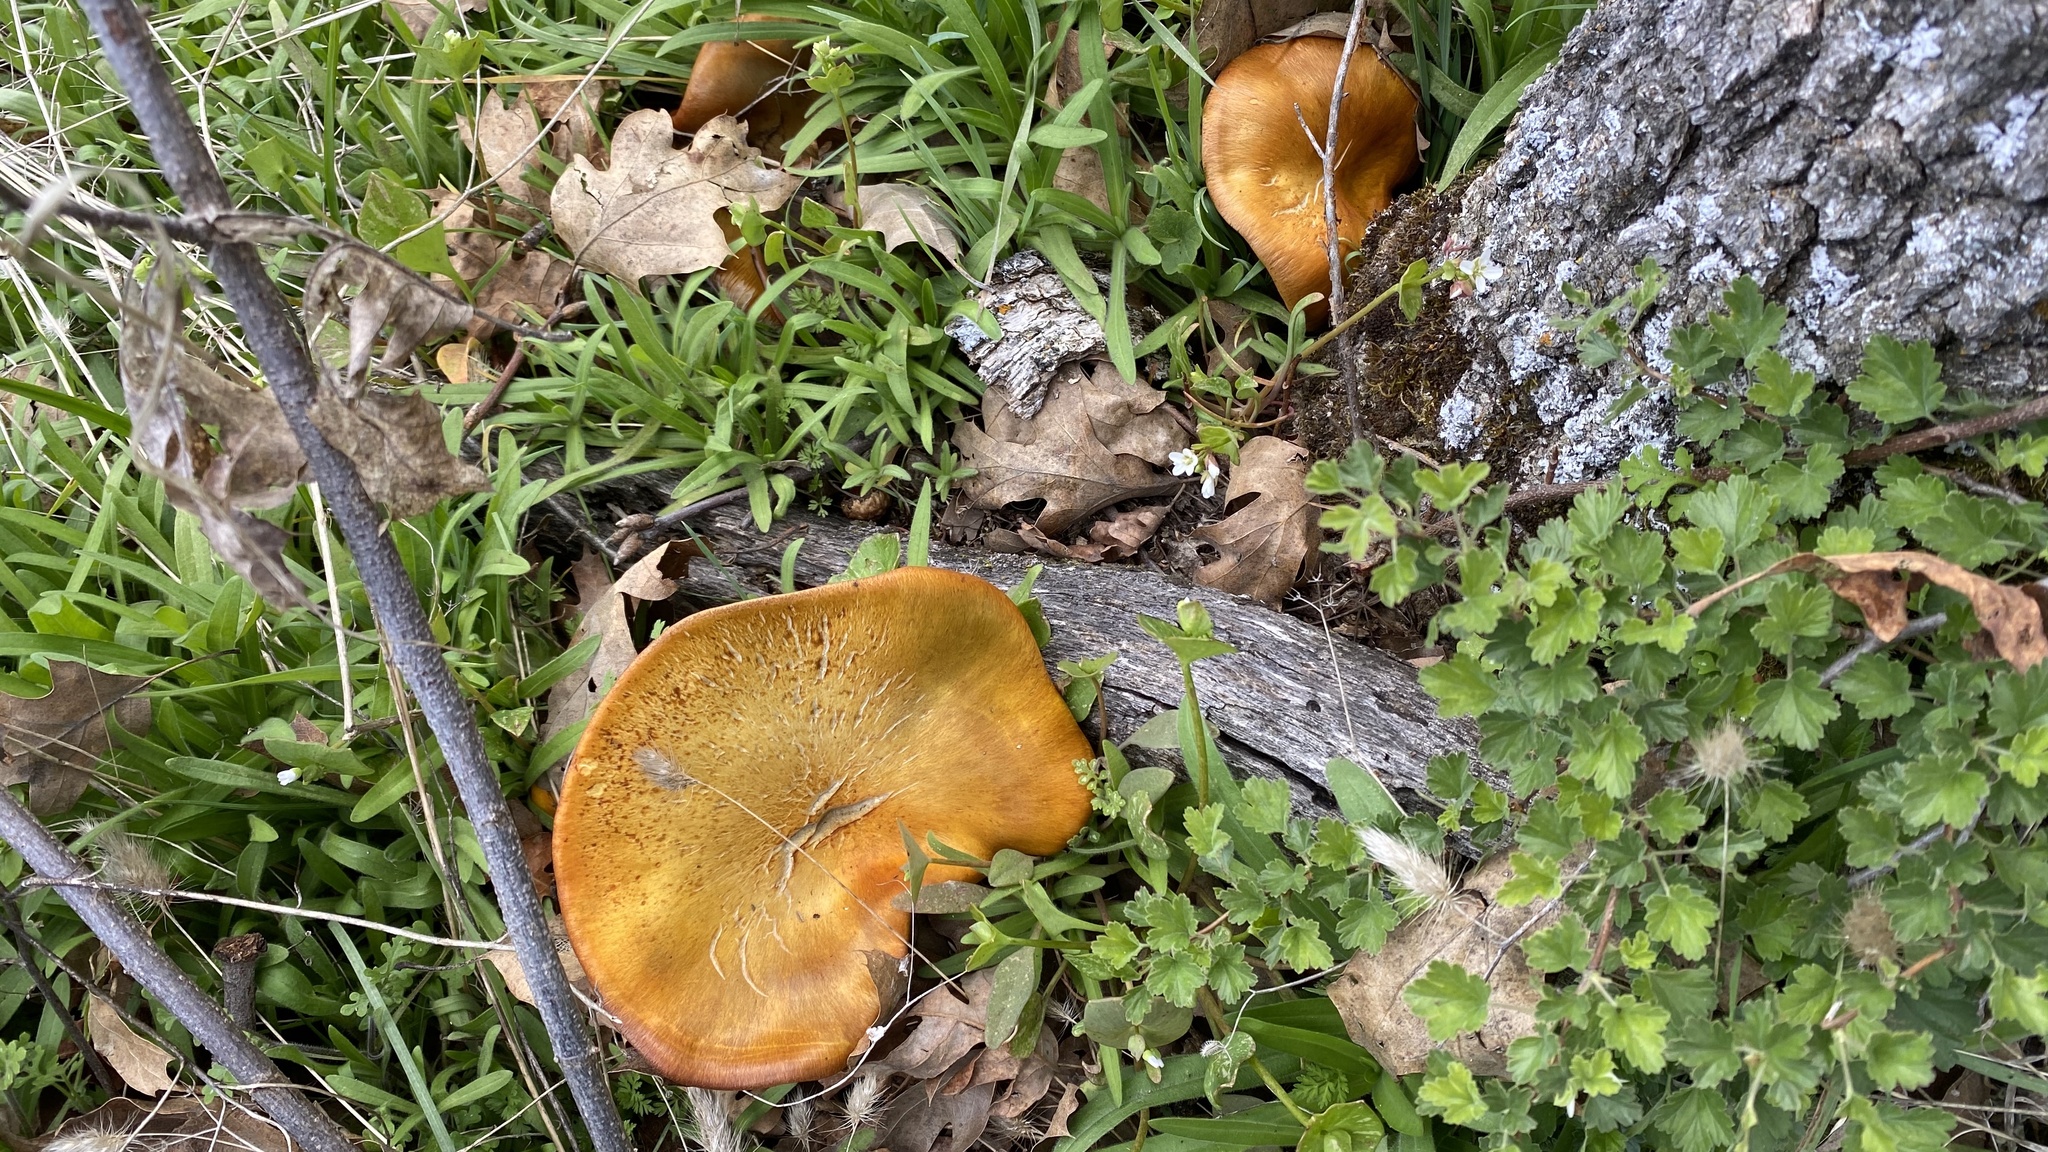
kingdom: Fungi
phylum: Basidiomycota
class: Agaricomycetes
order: Agaricales
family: Omphalotaceae
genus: Omphalotus
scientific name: Omphalotus olivascens
